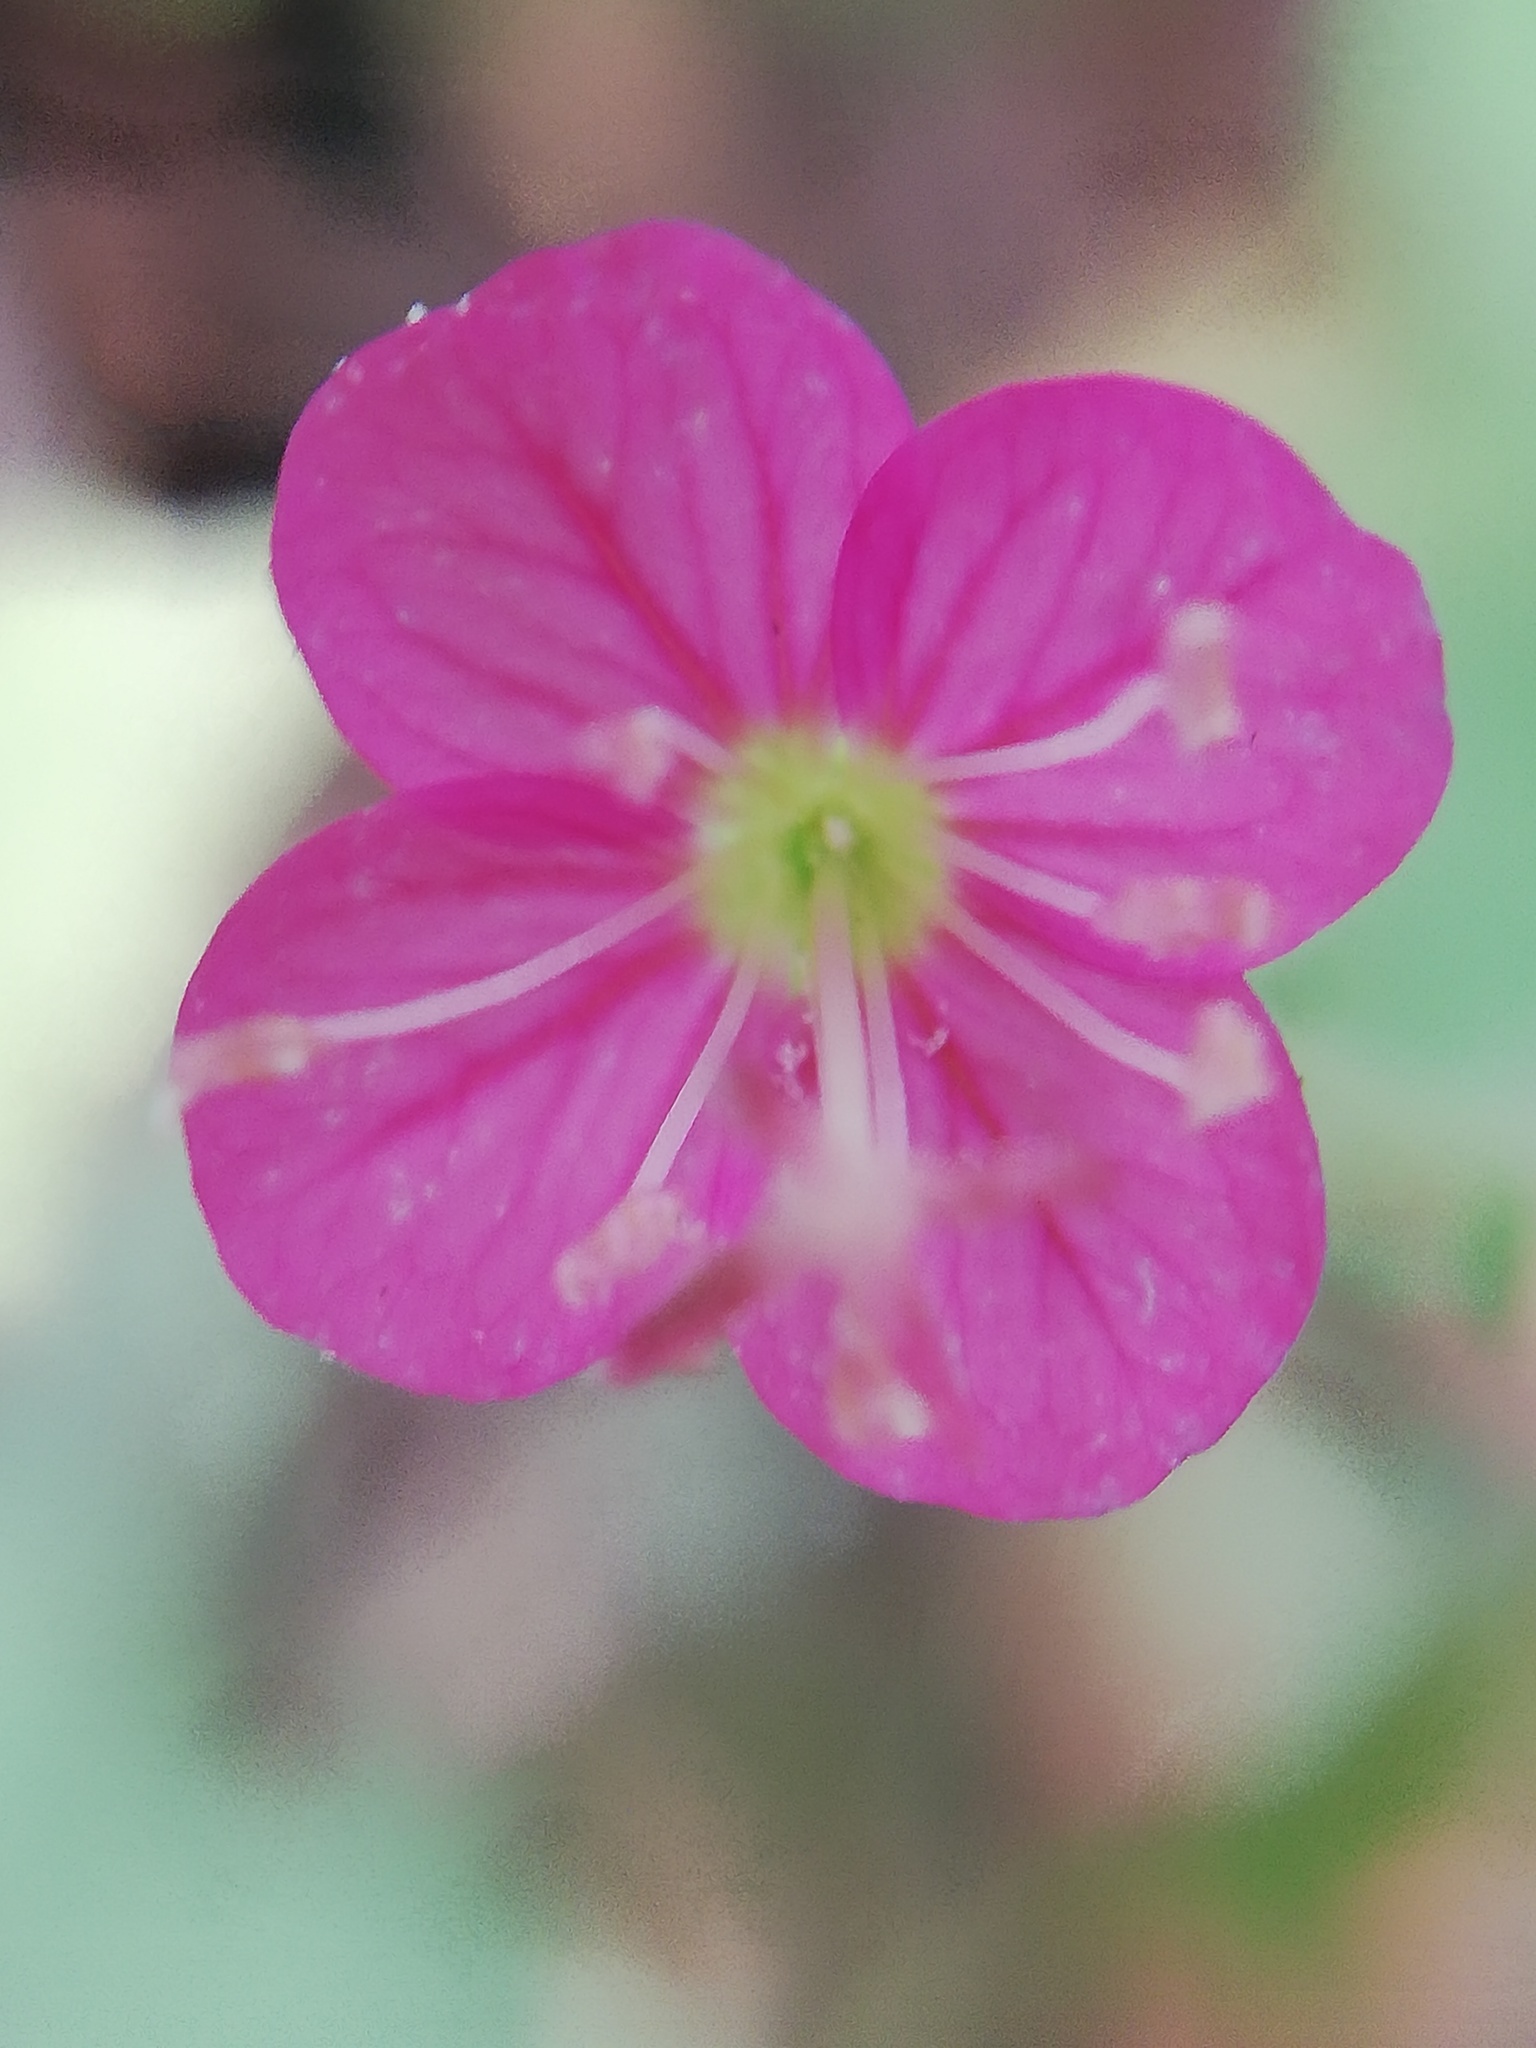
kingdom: Plantae
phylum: Tracheophyta
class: Magnoliopsida
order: Myrtales
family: Onagraceae
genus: Oenothera
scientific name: Oenothera rosea
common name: Rosy evening-primrose
